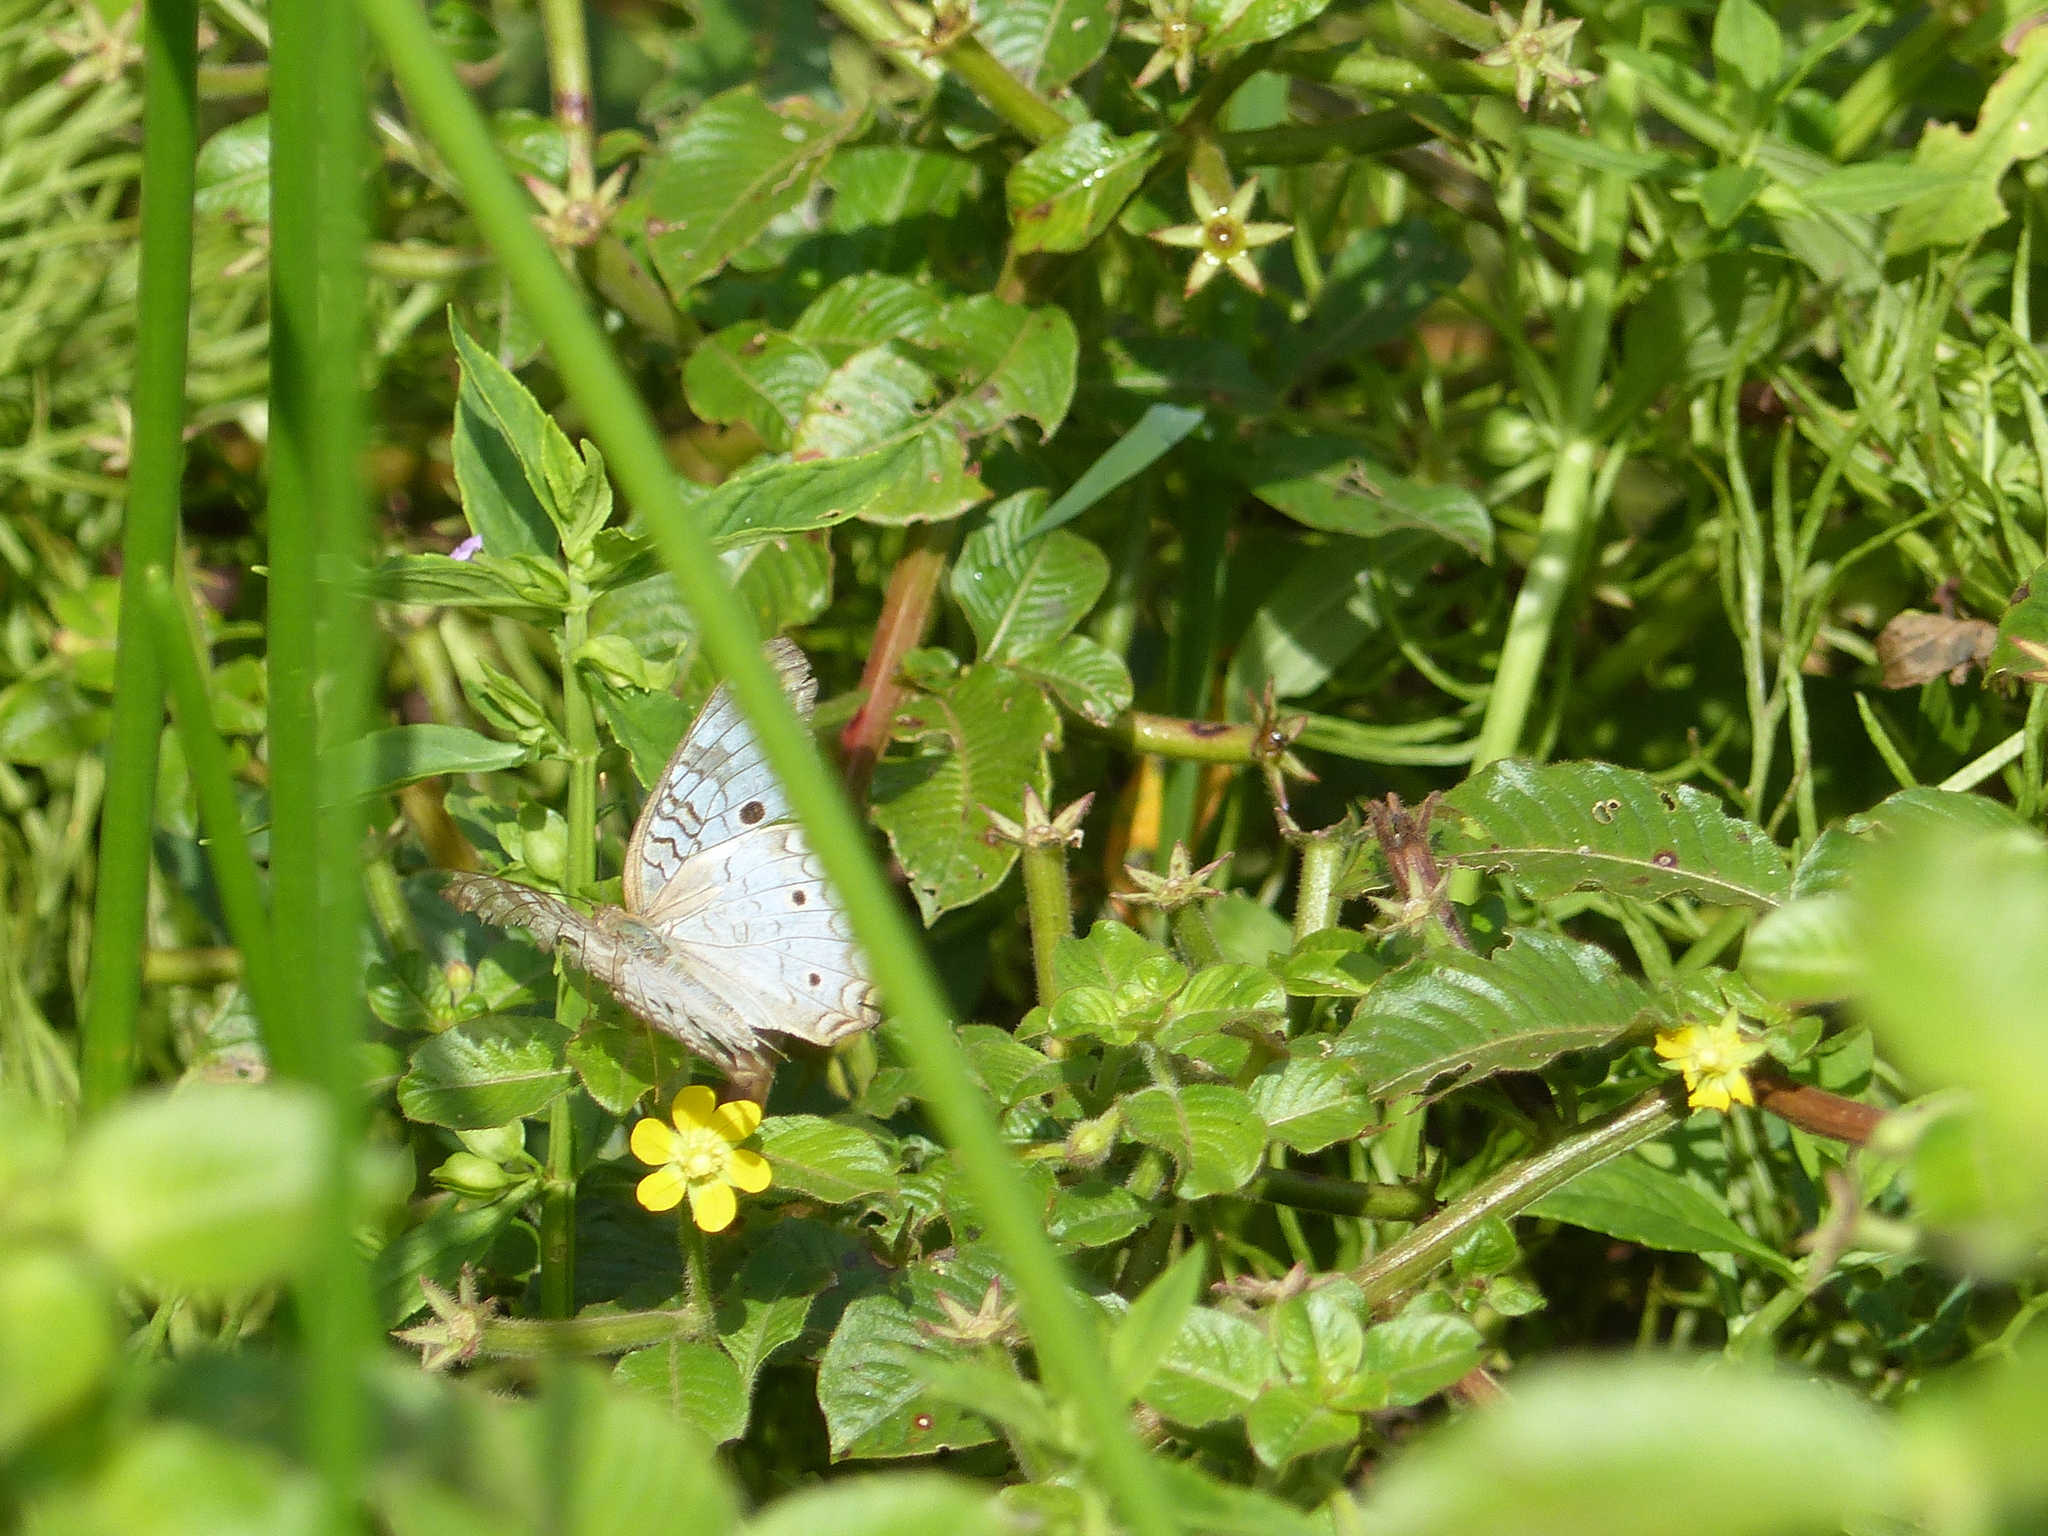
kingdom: Animalia
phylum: Arthropoda
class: Insecta
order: Lepidoptera
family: Nymphalidae
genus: Anartia
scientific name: Anartia jatrophae
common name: White peacock
